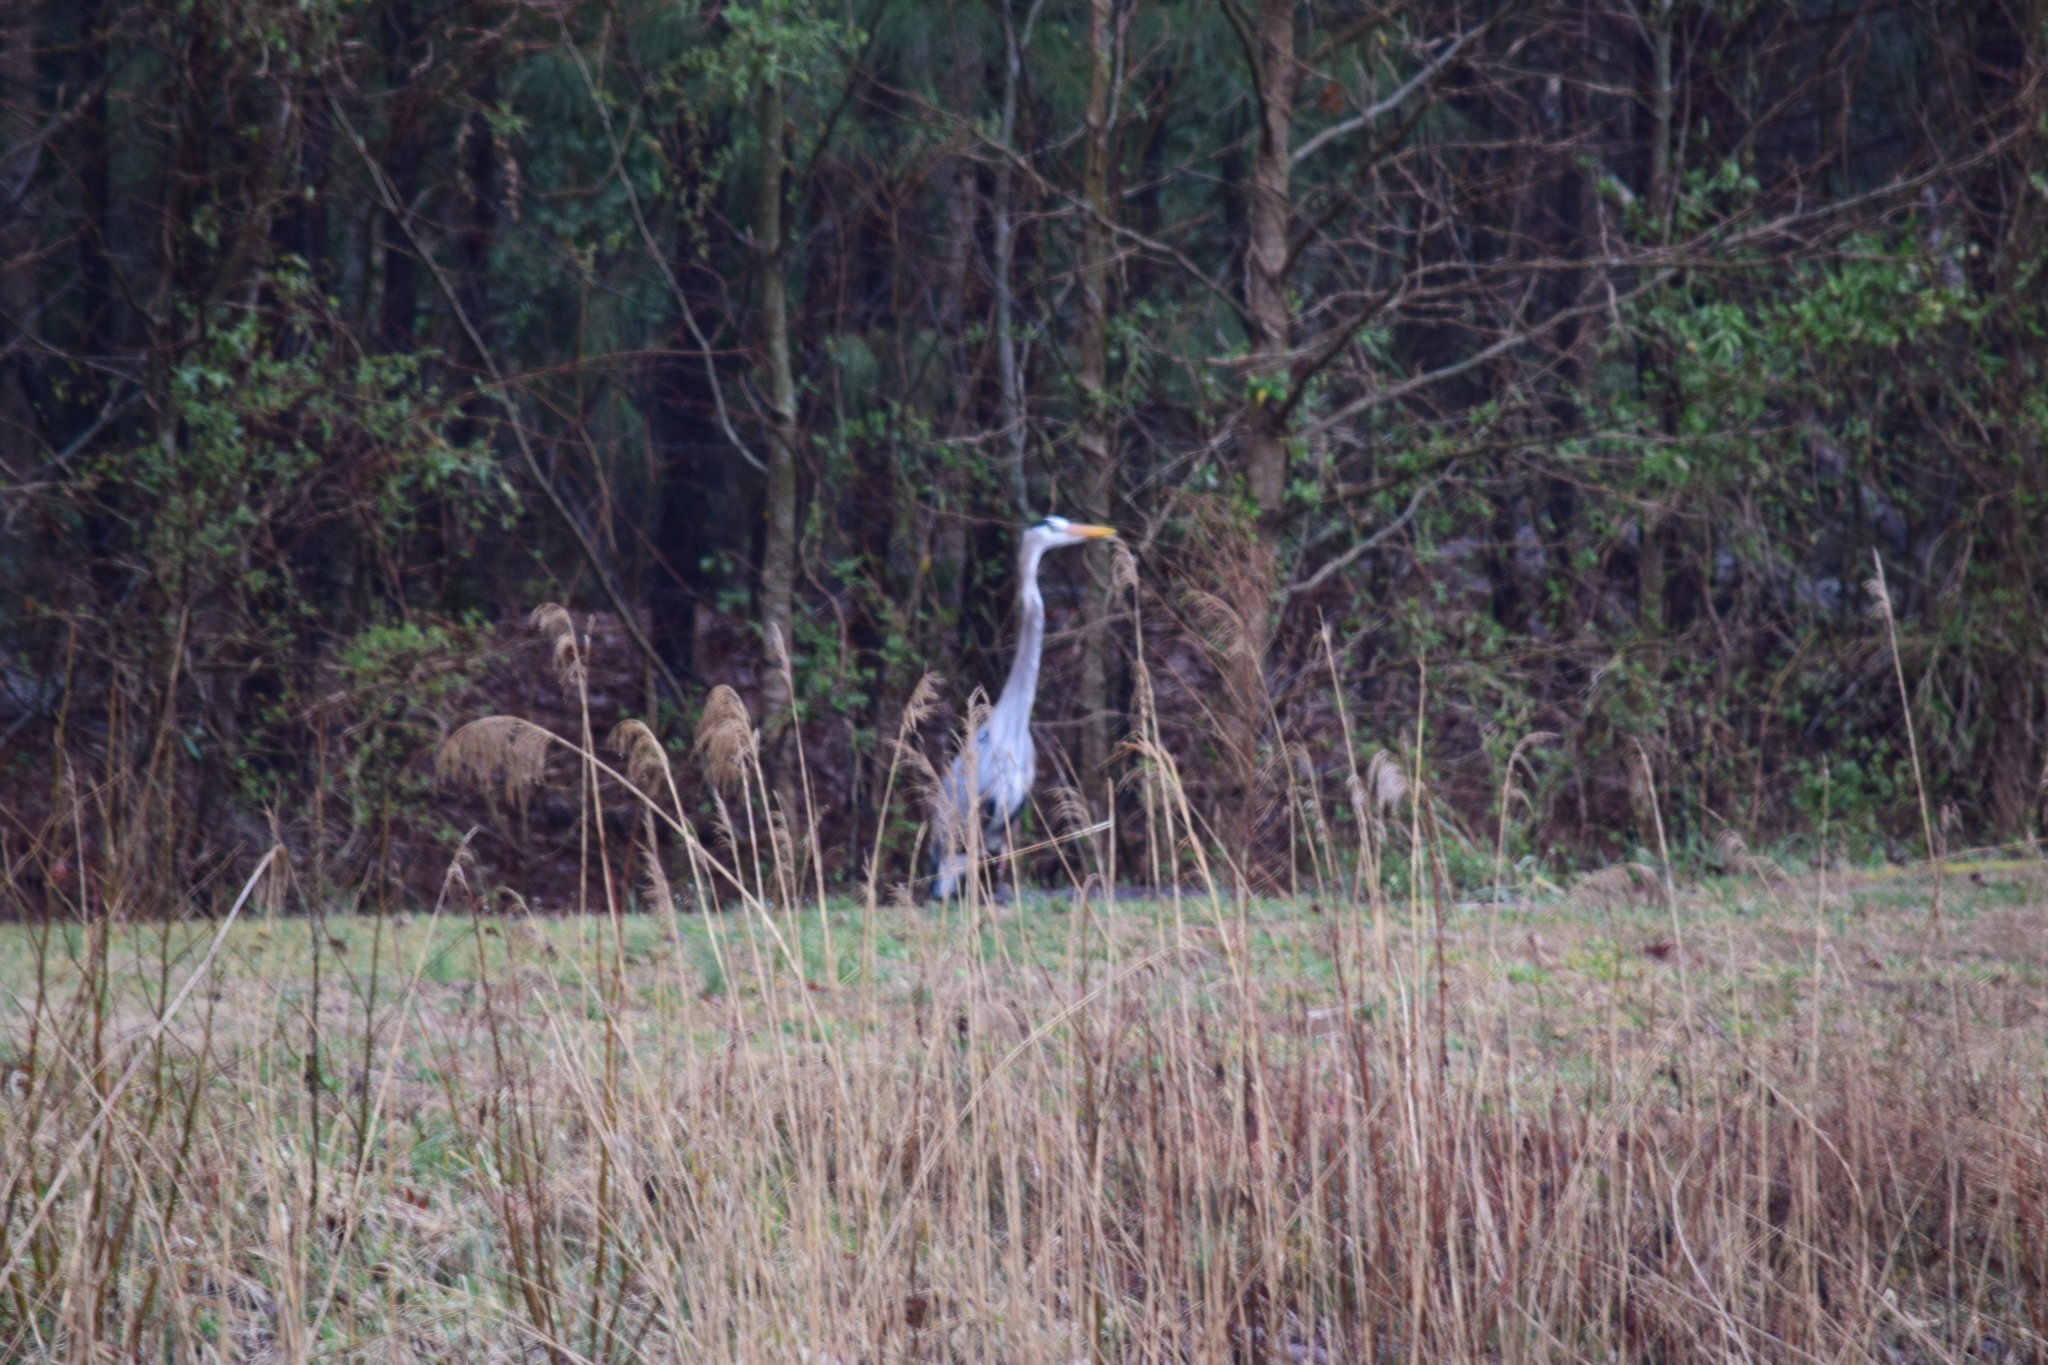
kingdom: Animalia
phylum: Chordata
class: Aves
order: Pelecaniformes
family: Ardeidae
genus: Ardea
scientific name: Ardea herodias
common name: Great blue heron
